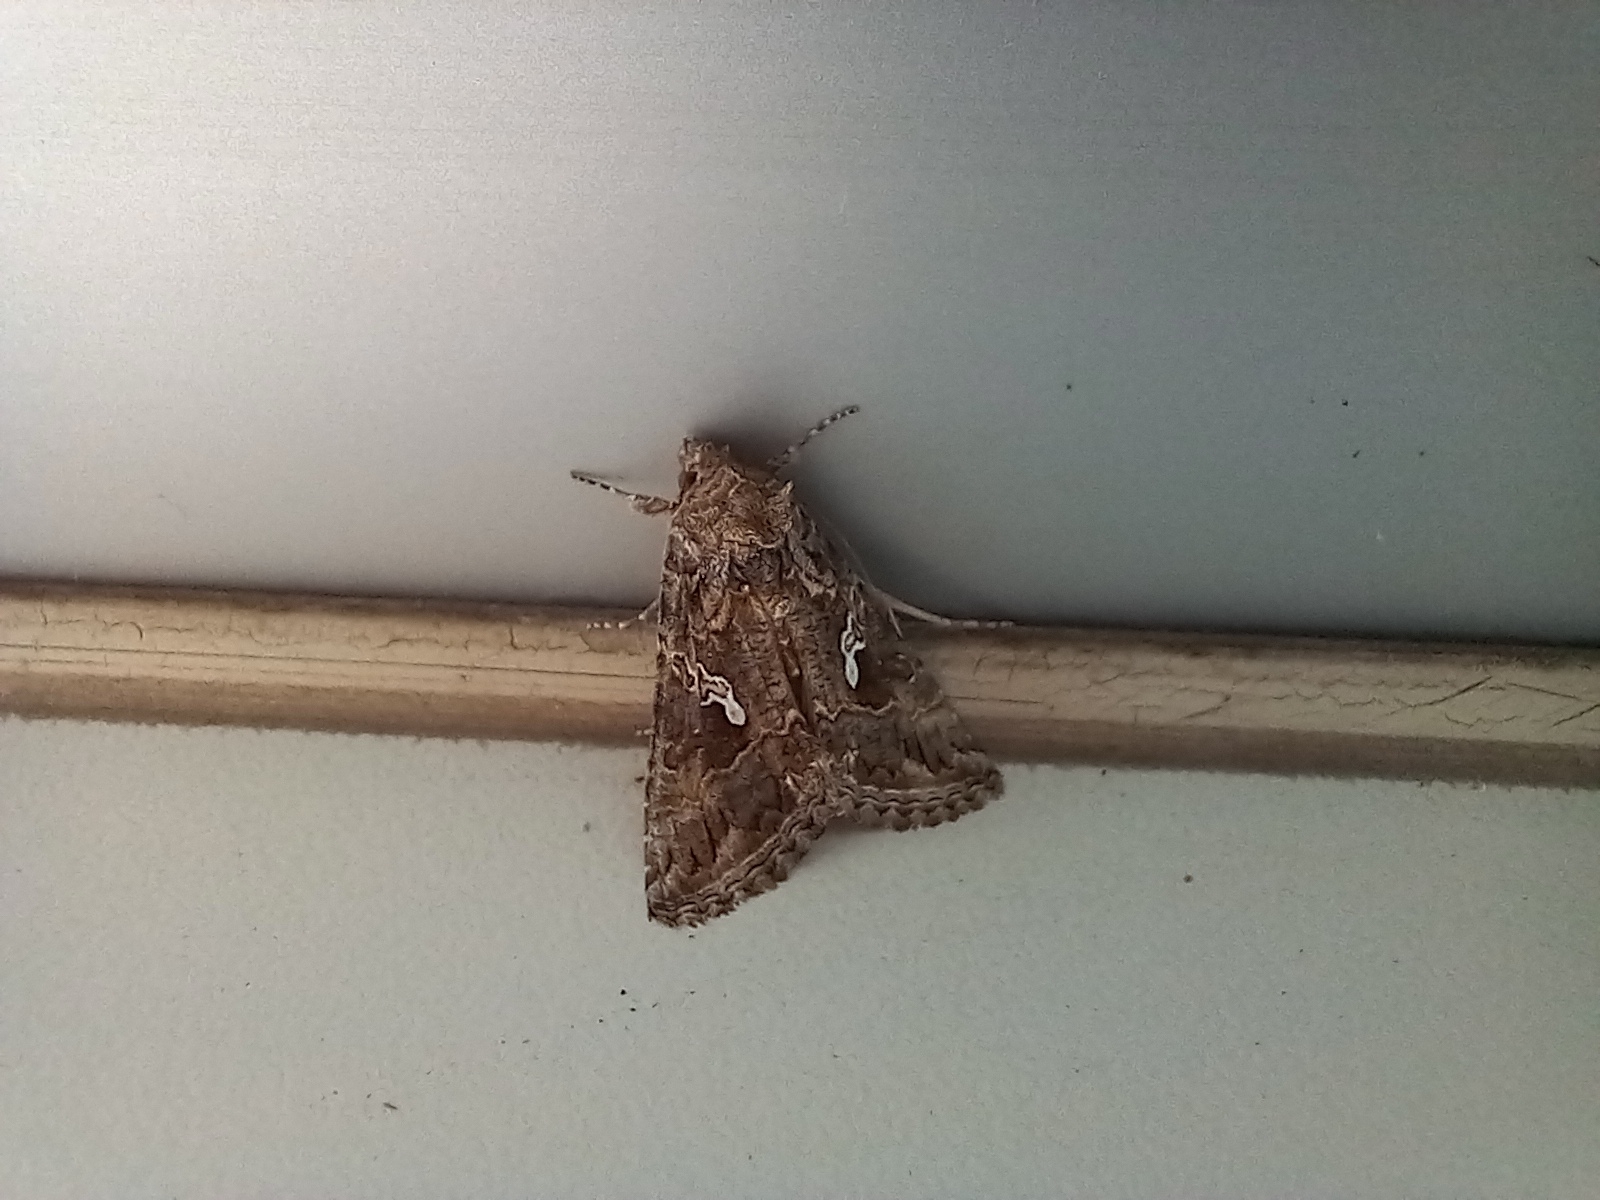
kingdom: Animalia
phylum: Arthropoda
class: Insecta
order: Lepidoptera
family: Noctuidae
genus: Trichoplusia
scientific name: Trichoplusia ni
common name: Ni moth
